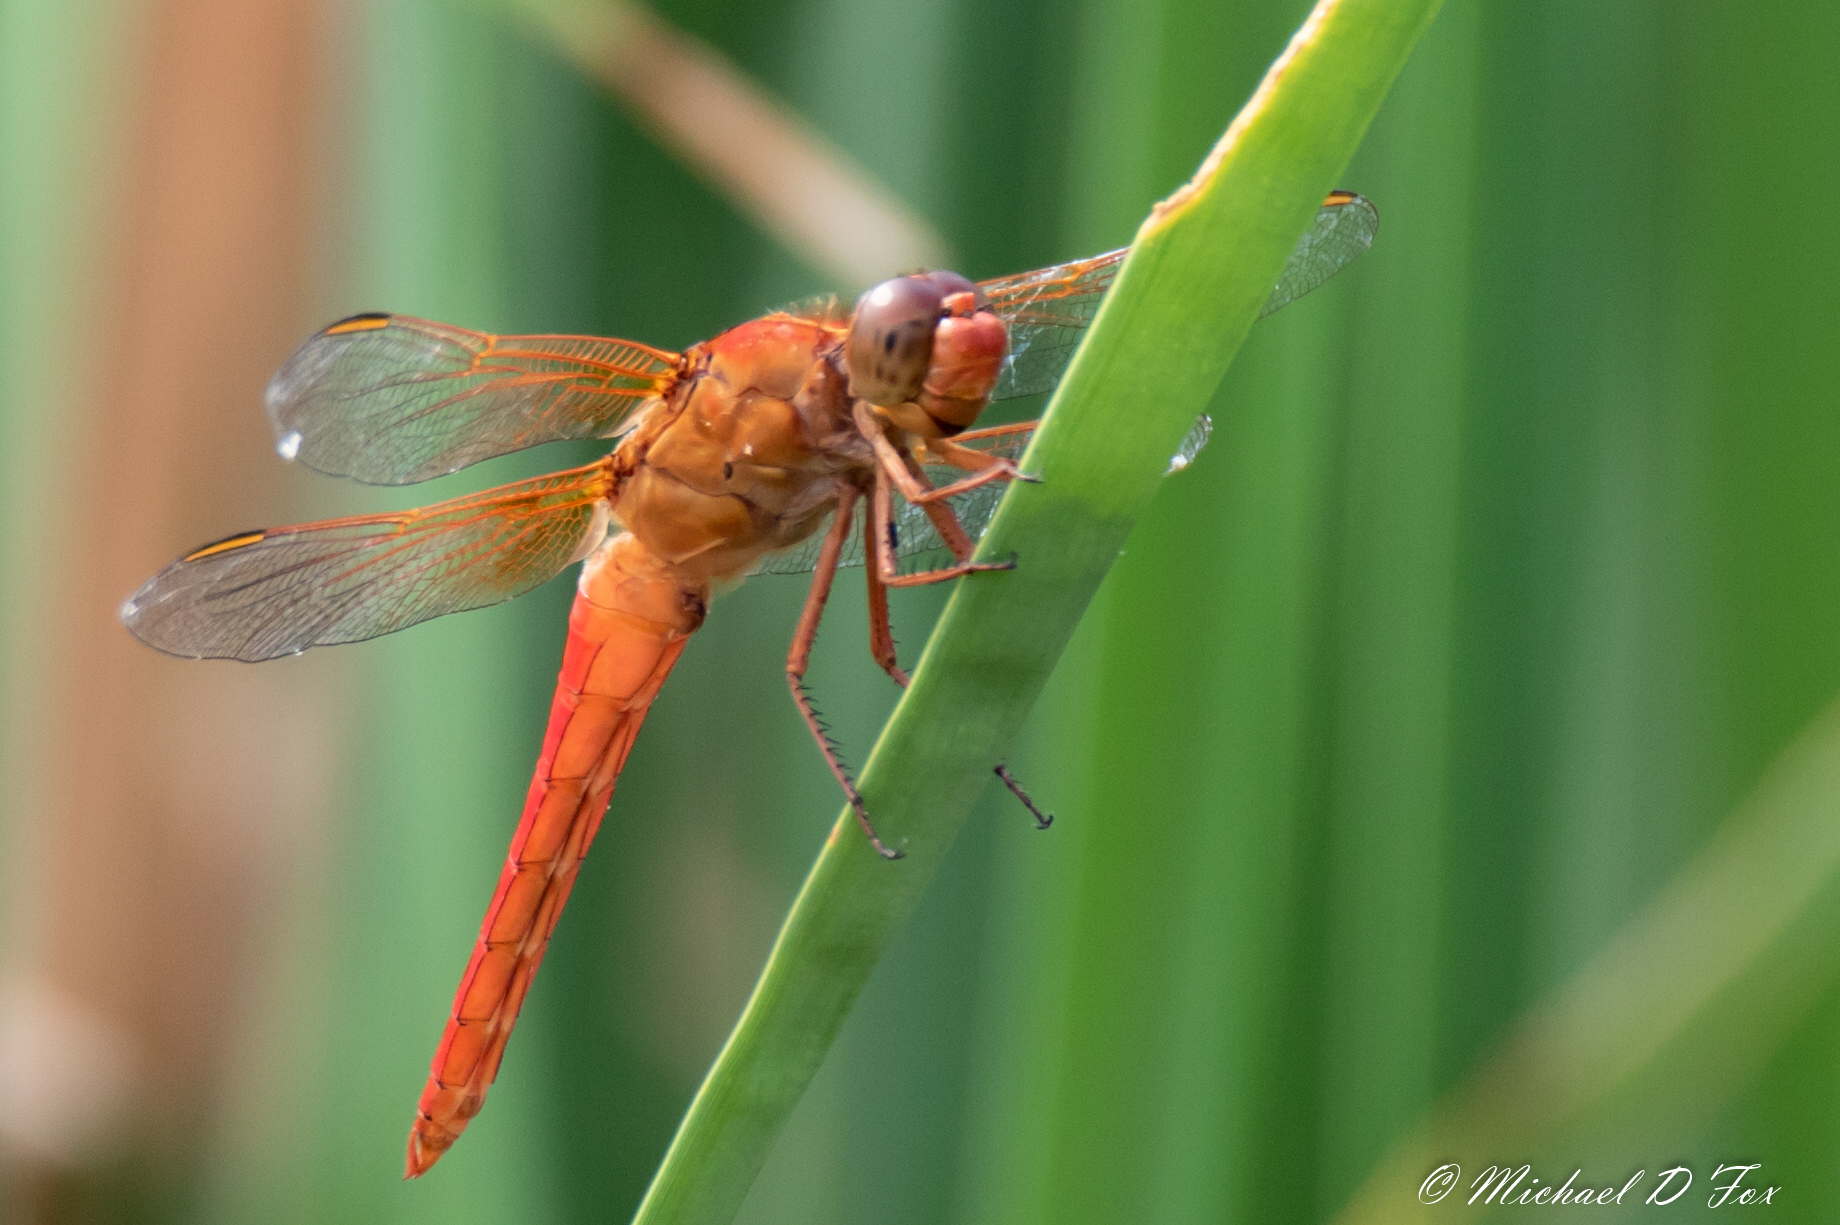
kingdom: Animalia
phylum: Arthropoda
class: Insecta
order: Odonata
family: Libellulidae
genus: Libellula
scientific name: Libellula croceipennis
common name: Neon skimmer
